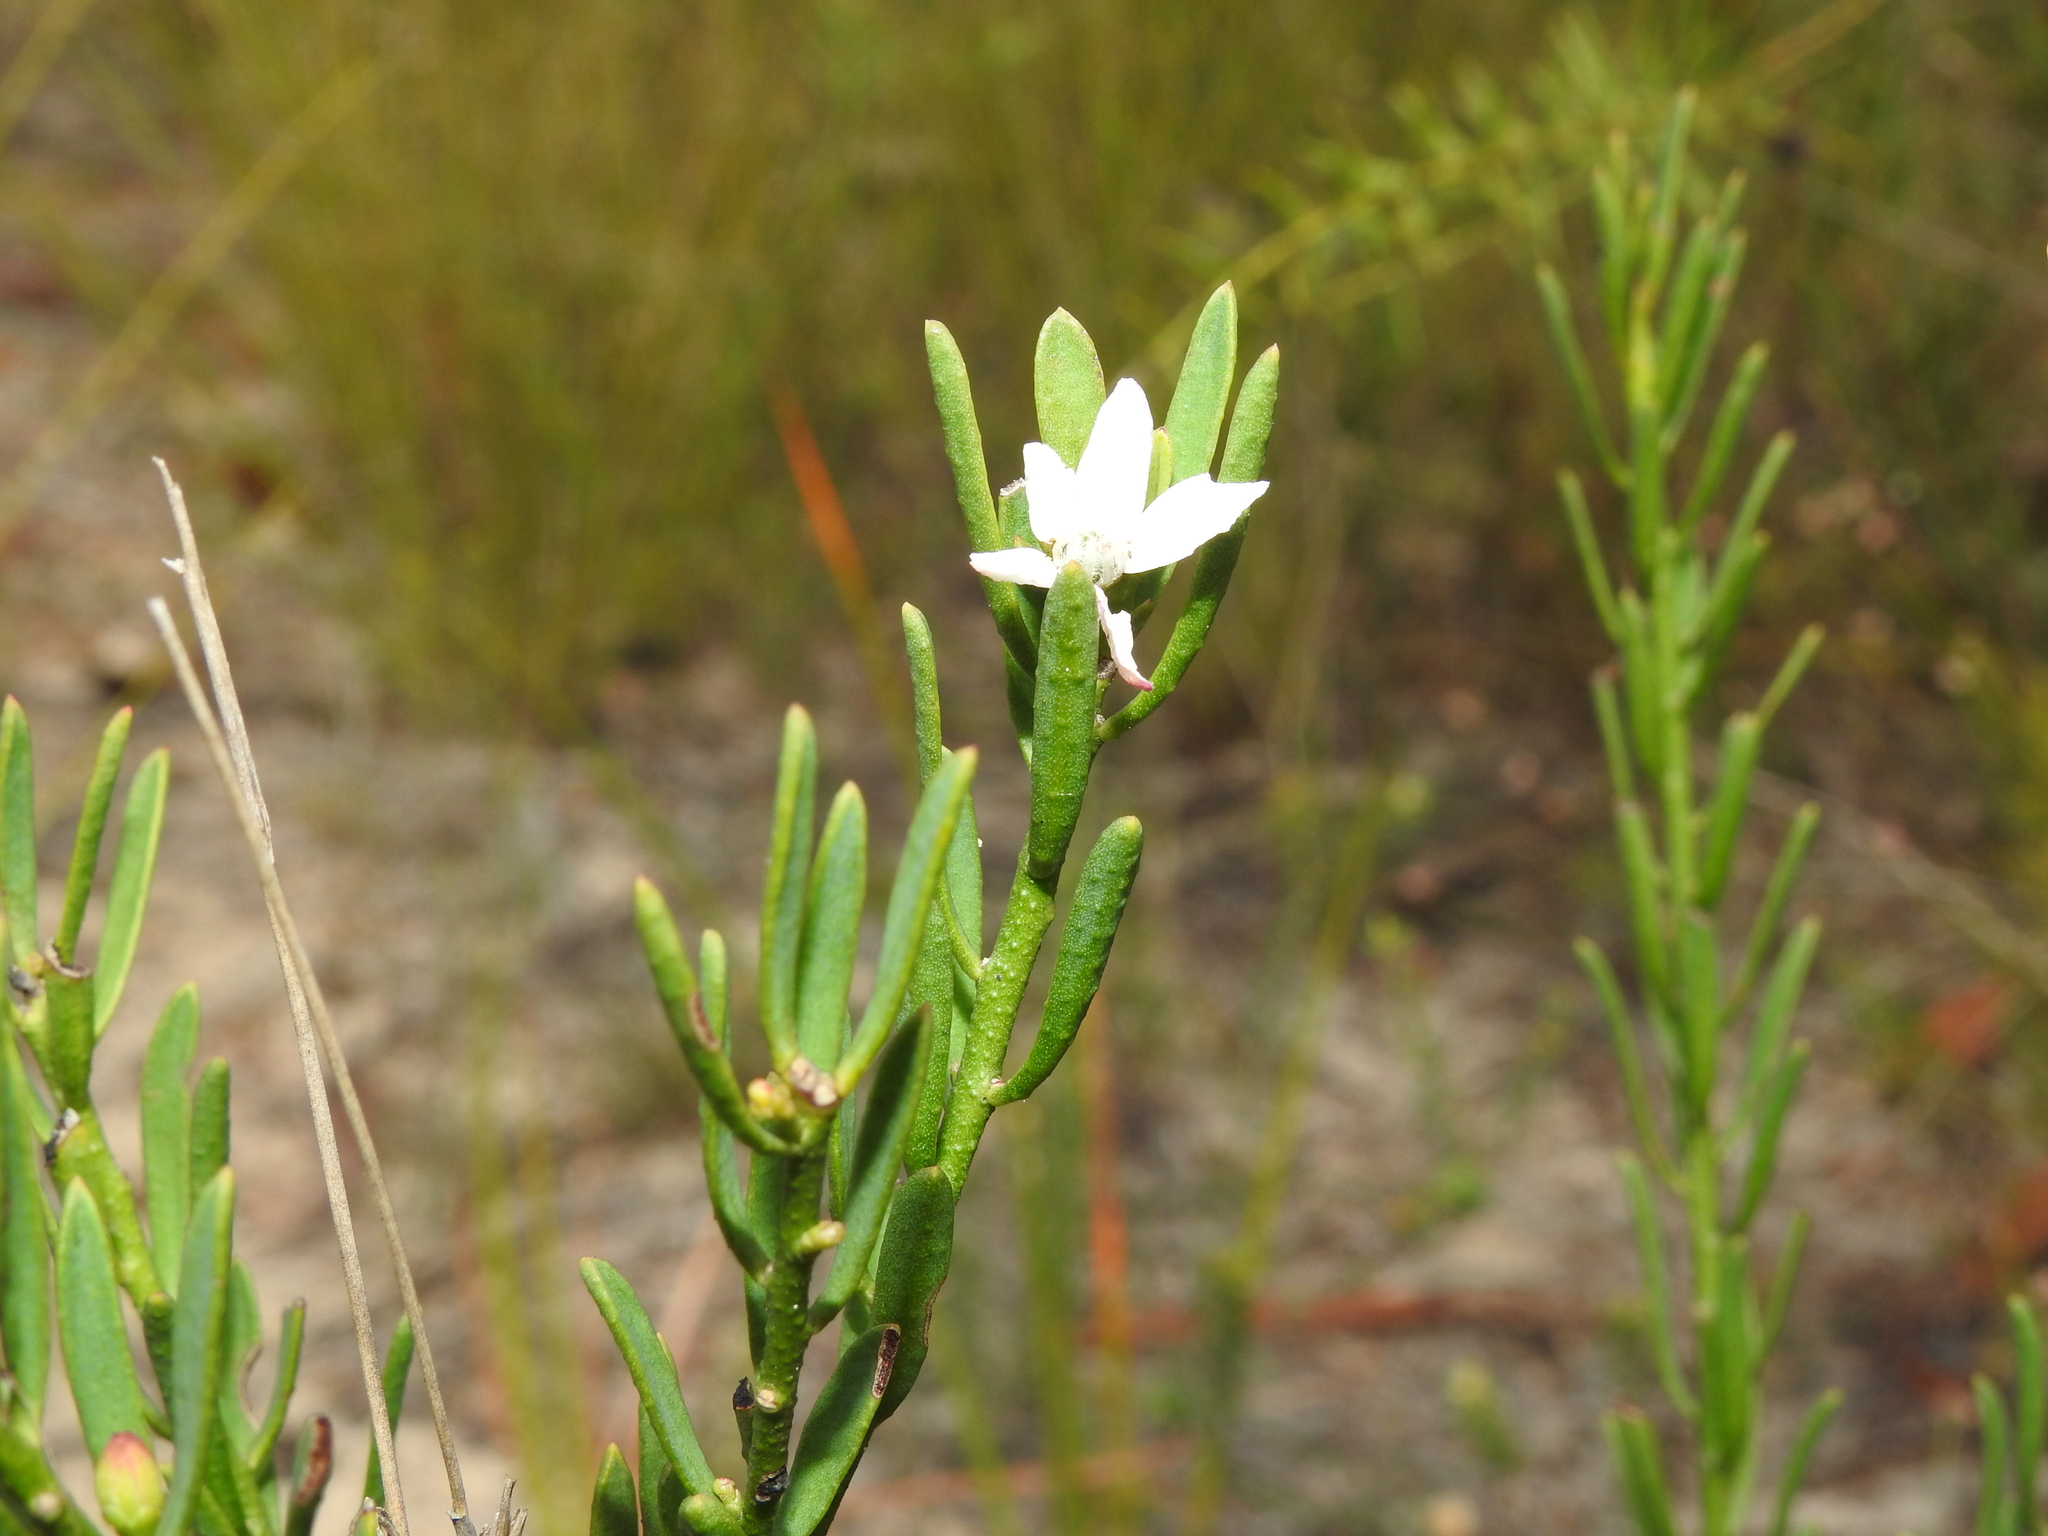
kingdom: Plantae
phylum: Tracheophyta
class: Magnoliopsida
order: Sapindales
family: Rutaceae
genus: Philotheca
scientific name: Philotheca queenslandica
